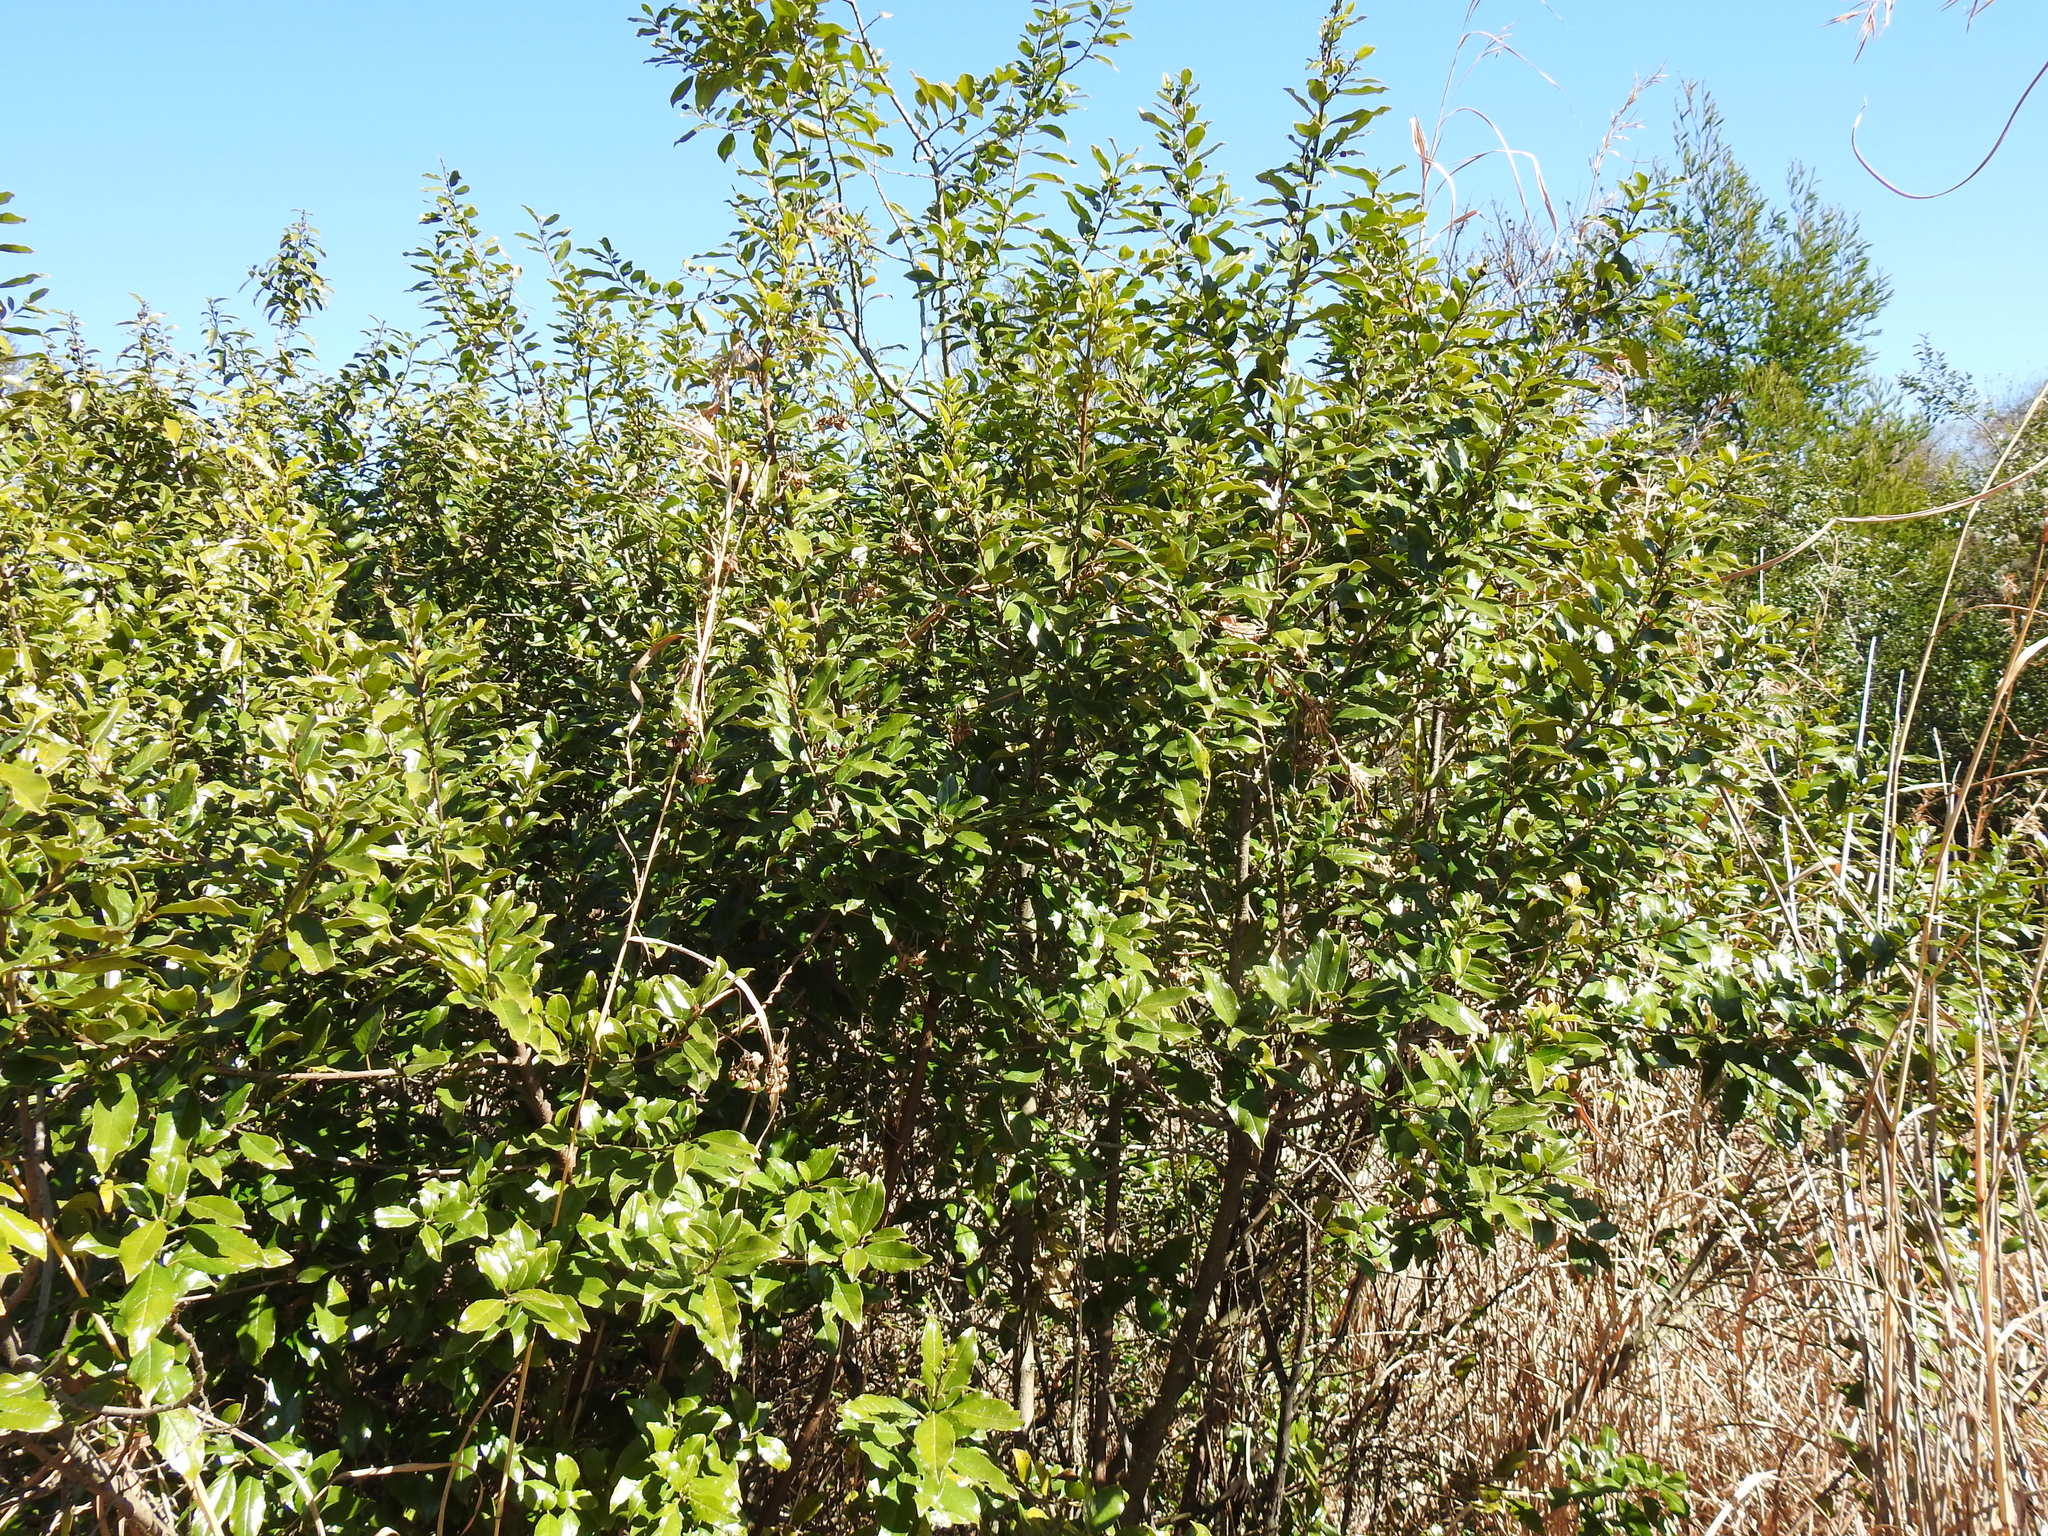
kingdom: Plantae
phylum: Tracheophyta
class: Magnoliopsida
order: Rosales
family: Rhamnaceae
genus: Rhamnus
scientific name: Rhamnus prinoides
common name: Dogwood
